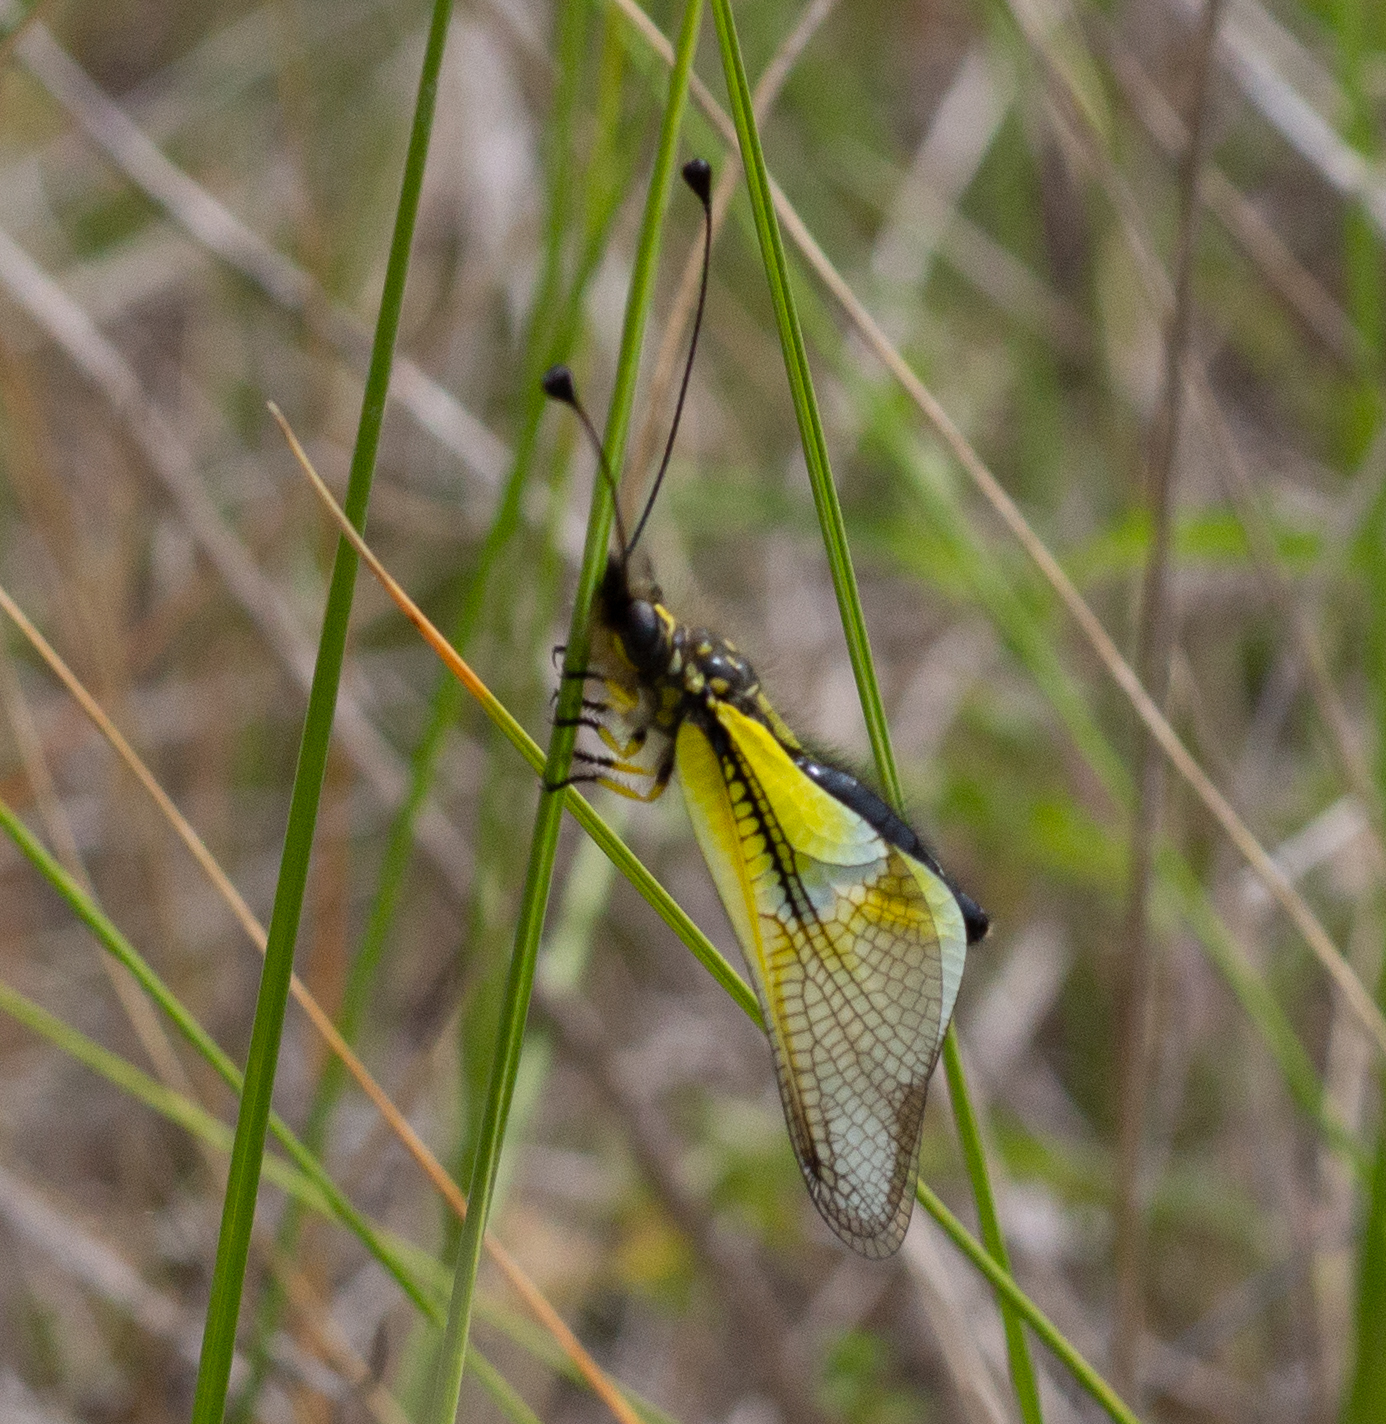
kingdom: Animalia
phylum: Arthropoda
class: Insecta
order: Neuroptera
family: Ascalaphidae
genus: Libelloides
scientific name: Libelloides baeticus
